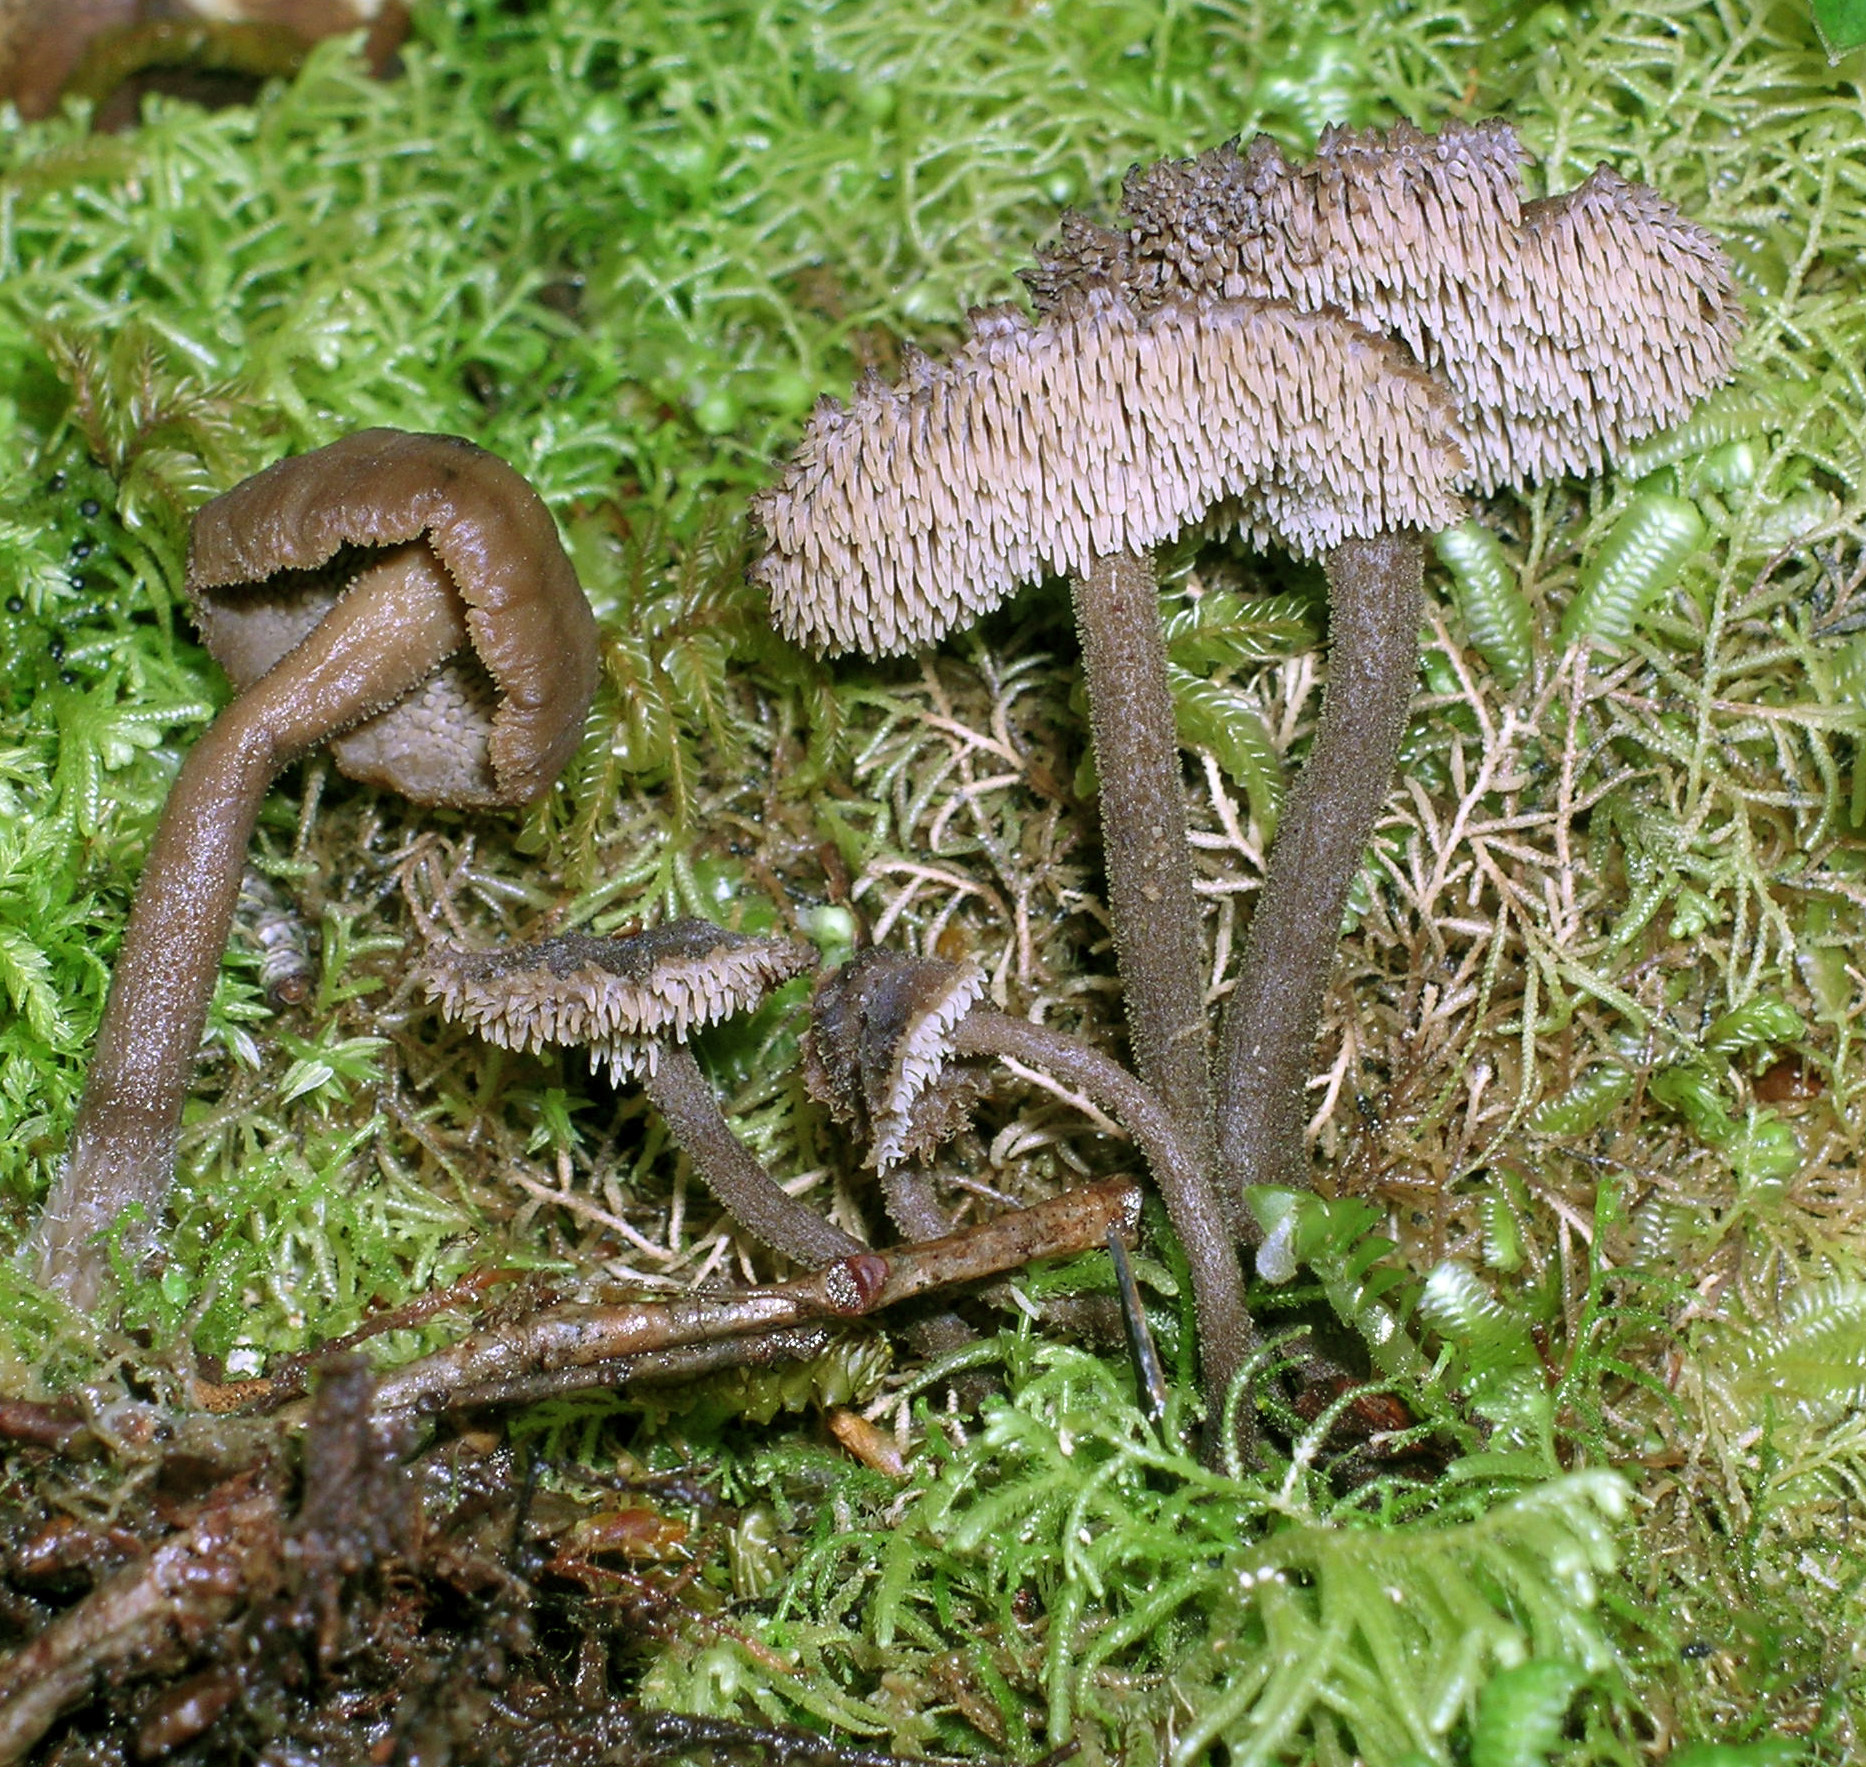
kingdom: Fungi
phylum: Basidiomycota
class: Agaricomycetes
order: Russulales
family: Auriscalpiaceae
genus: Auriscalpium
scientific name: Auriscalpium umbella
